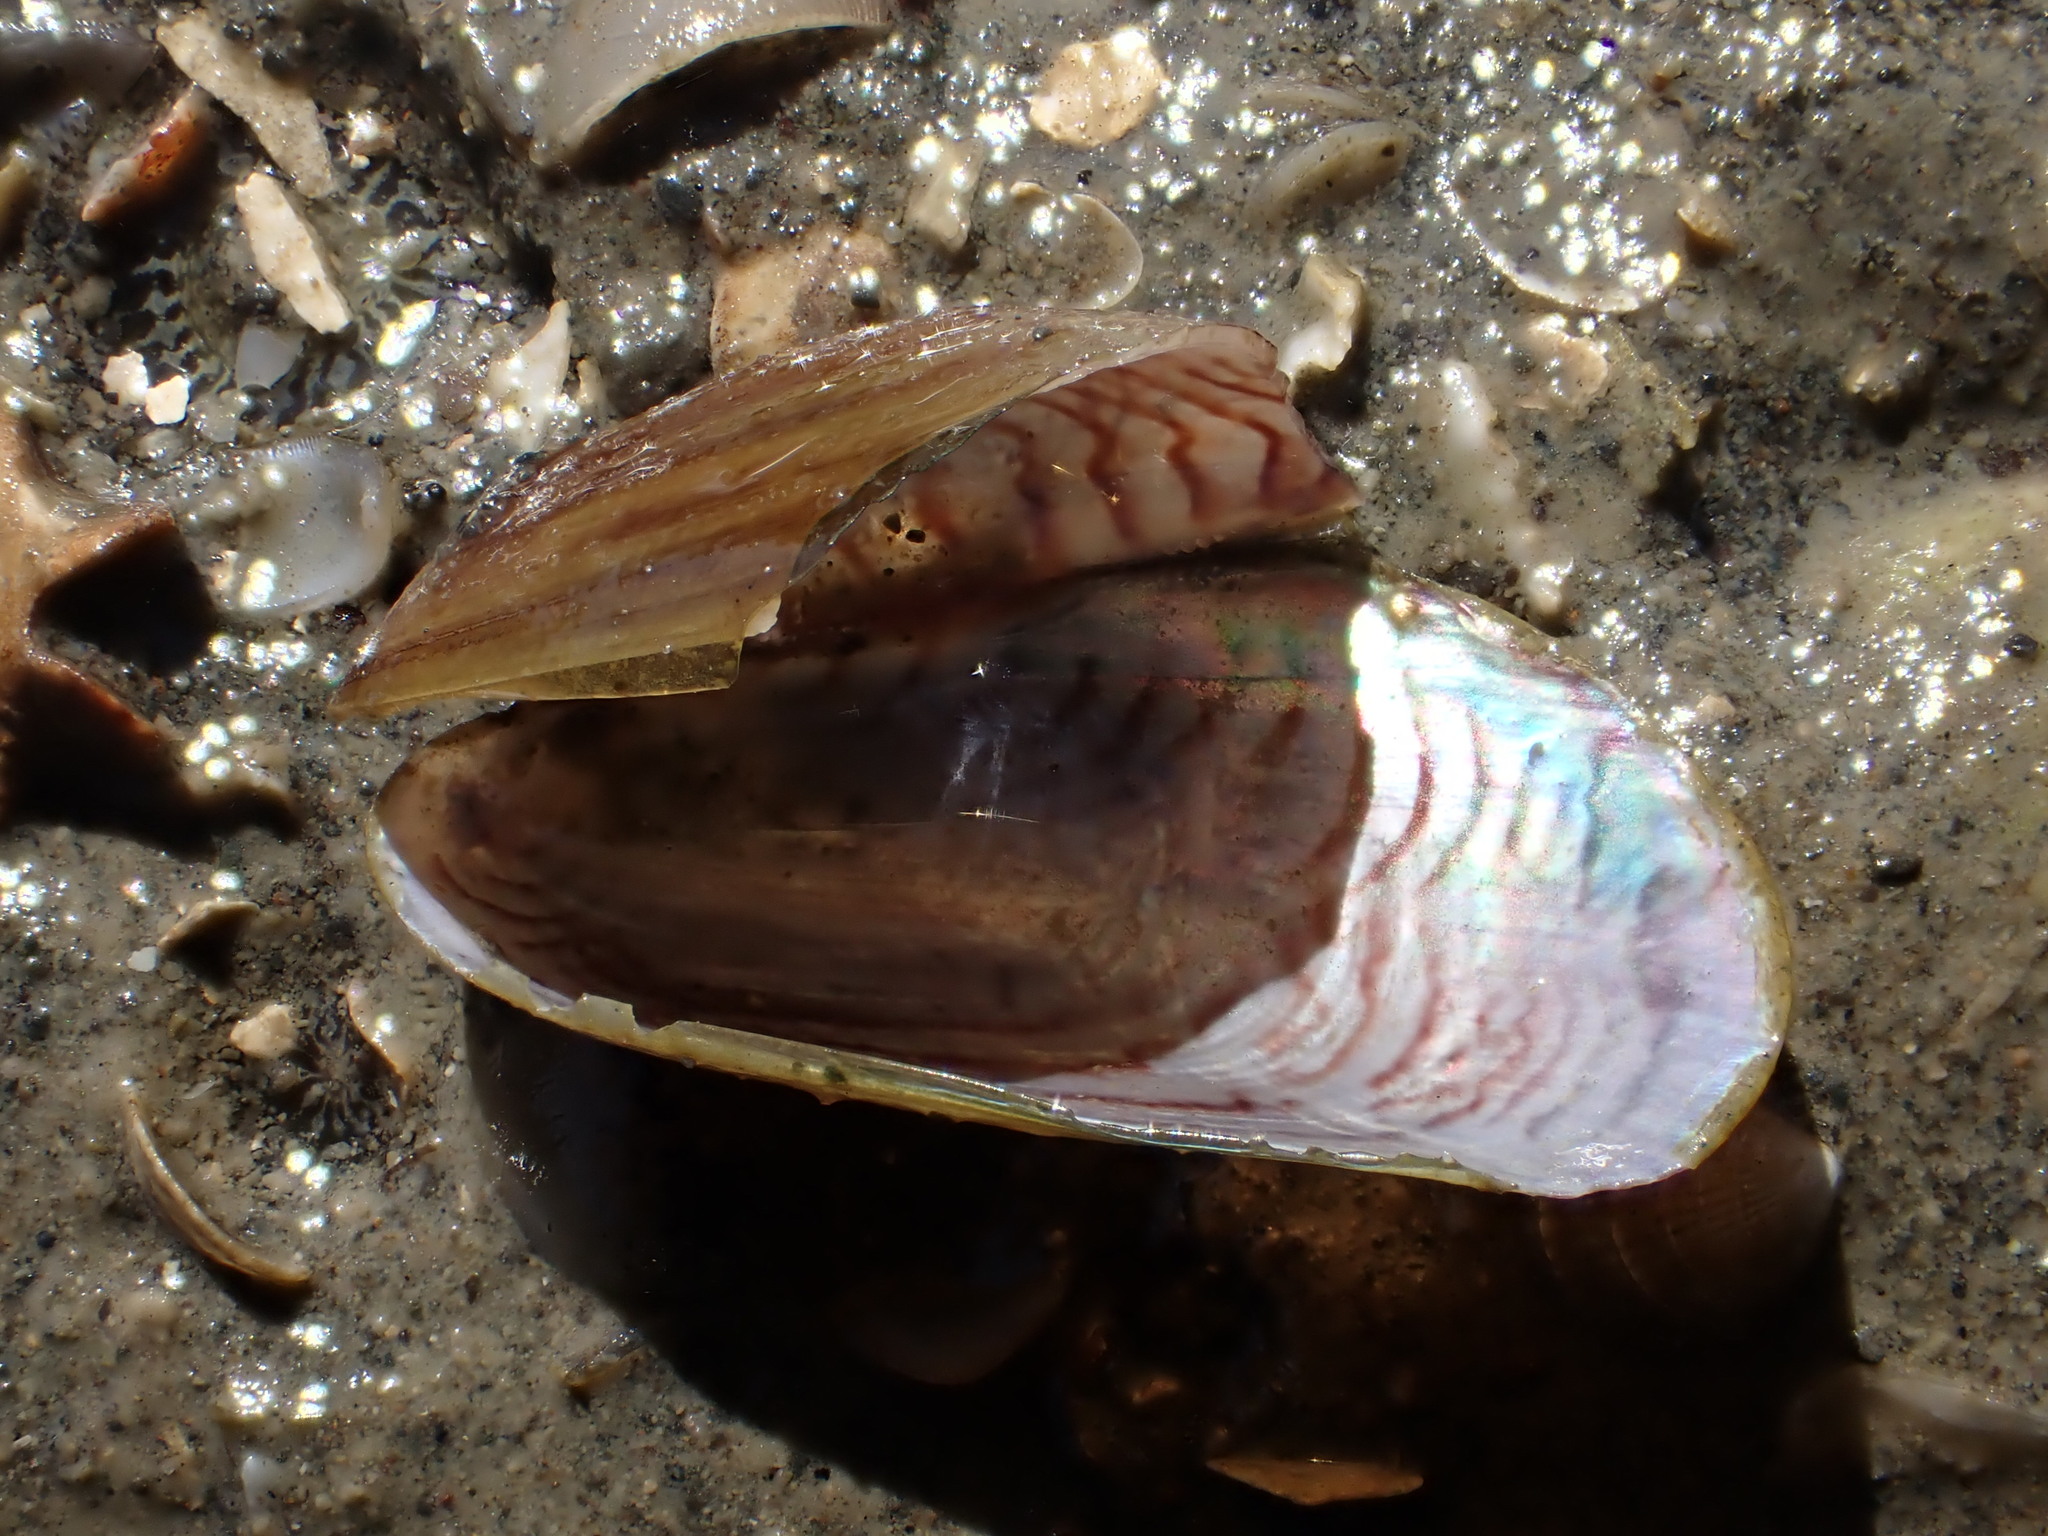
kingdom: Animalia
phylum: Mollusca
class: Bivalvia
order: Mytilida
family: Mytilidae
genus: Arcuatula
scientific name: Arcuatula senhousia
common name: Asian mussel
